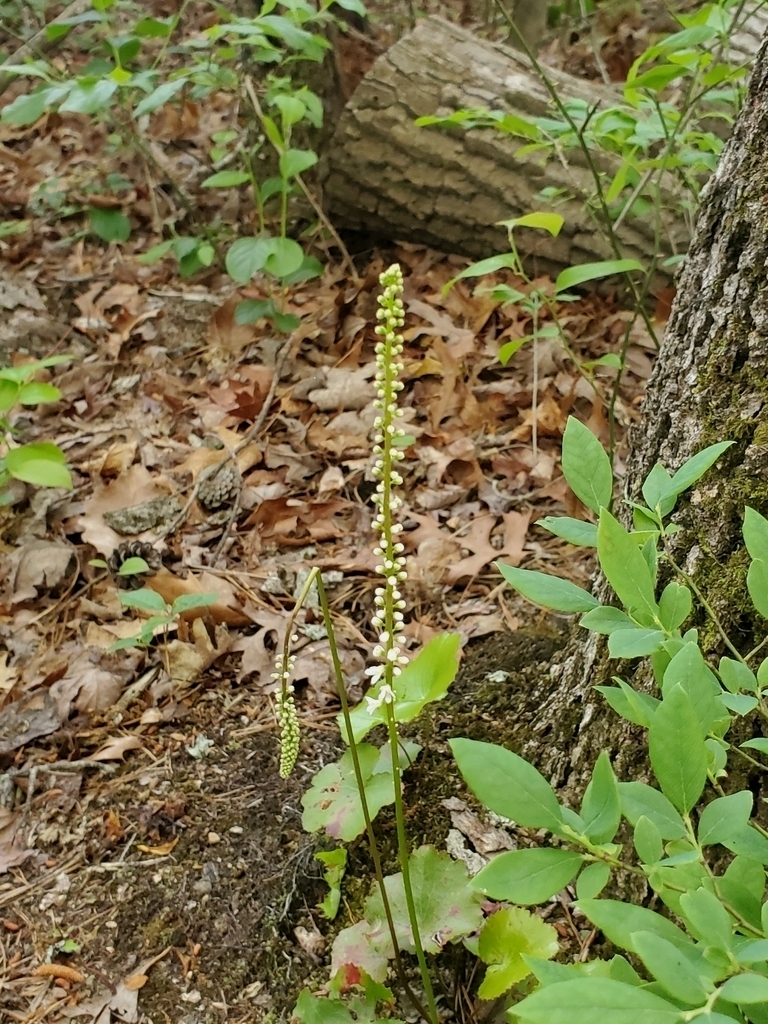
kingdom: Plantae
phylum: Tracheophyta
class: Magnoliopsida
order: Ericales
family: Diapensiaceae
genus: Galax
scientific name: Galax urceolata
